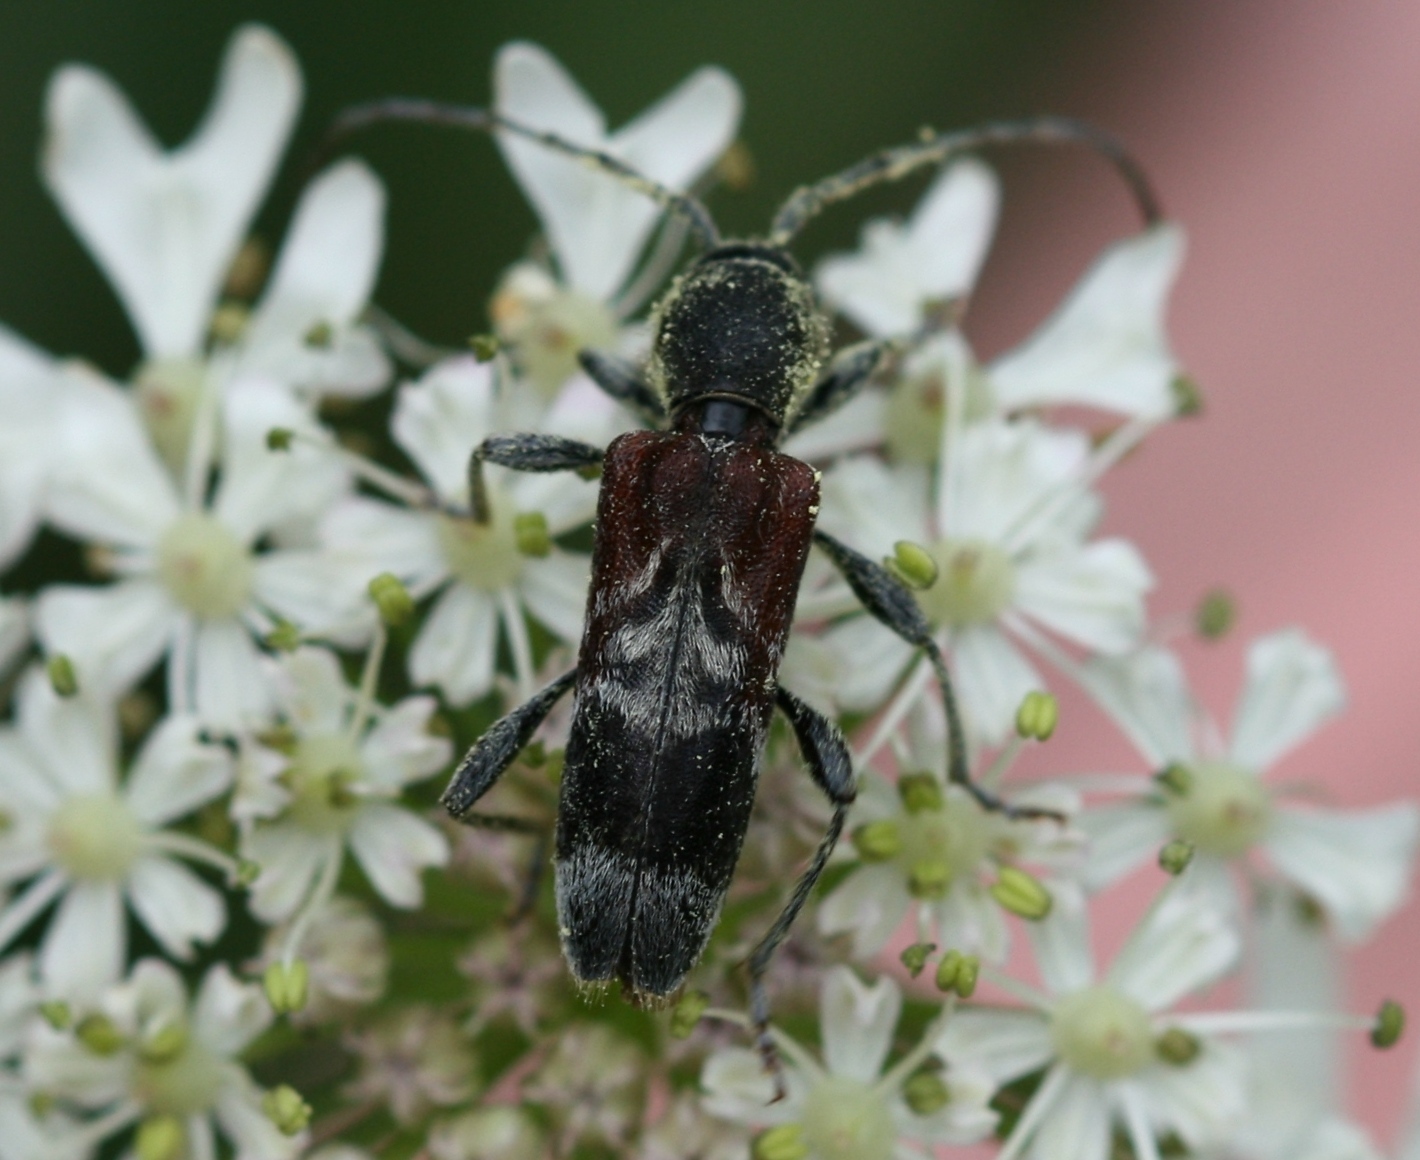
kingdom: Animalia
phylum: Arthropoda
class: Insecta
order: Coleoptera
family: Cerambycidae
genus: Anaglyptus
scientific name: Anaglyptus mysticus
